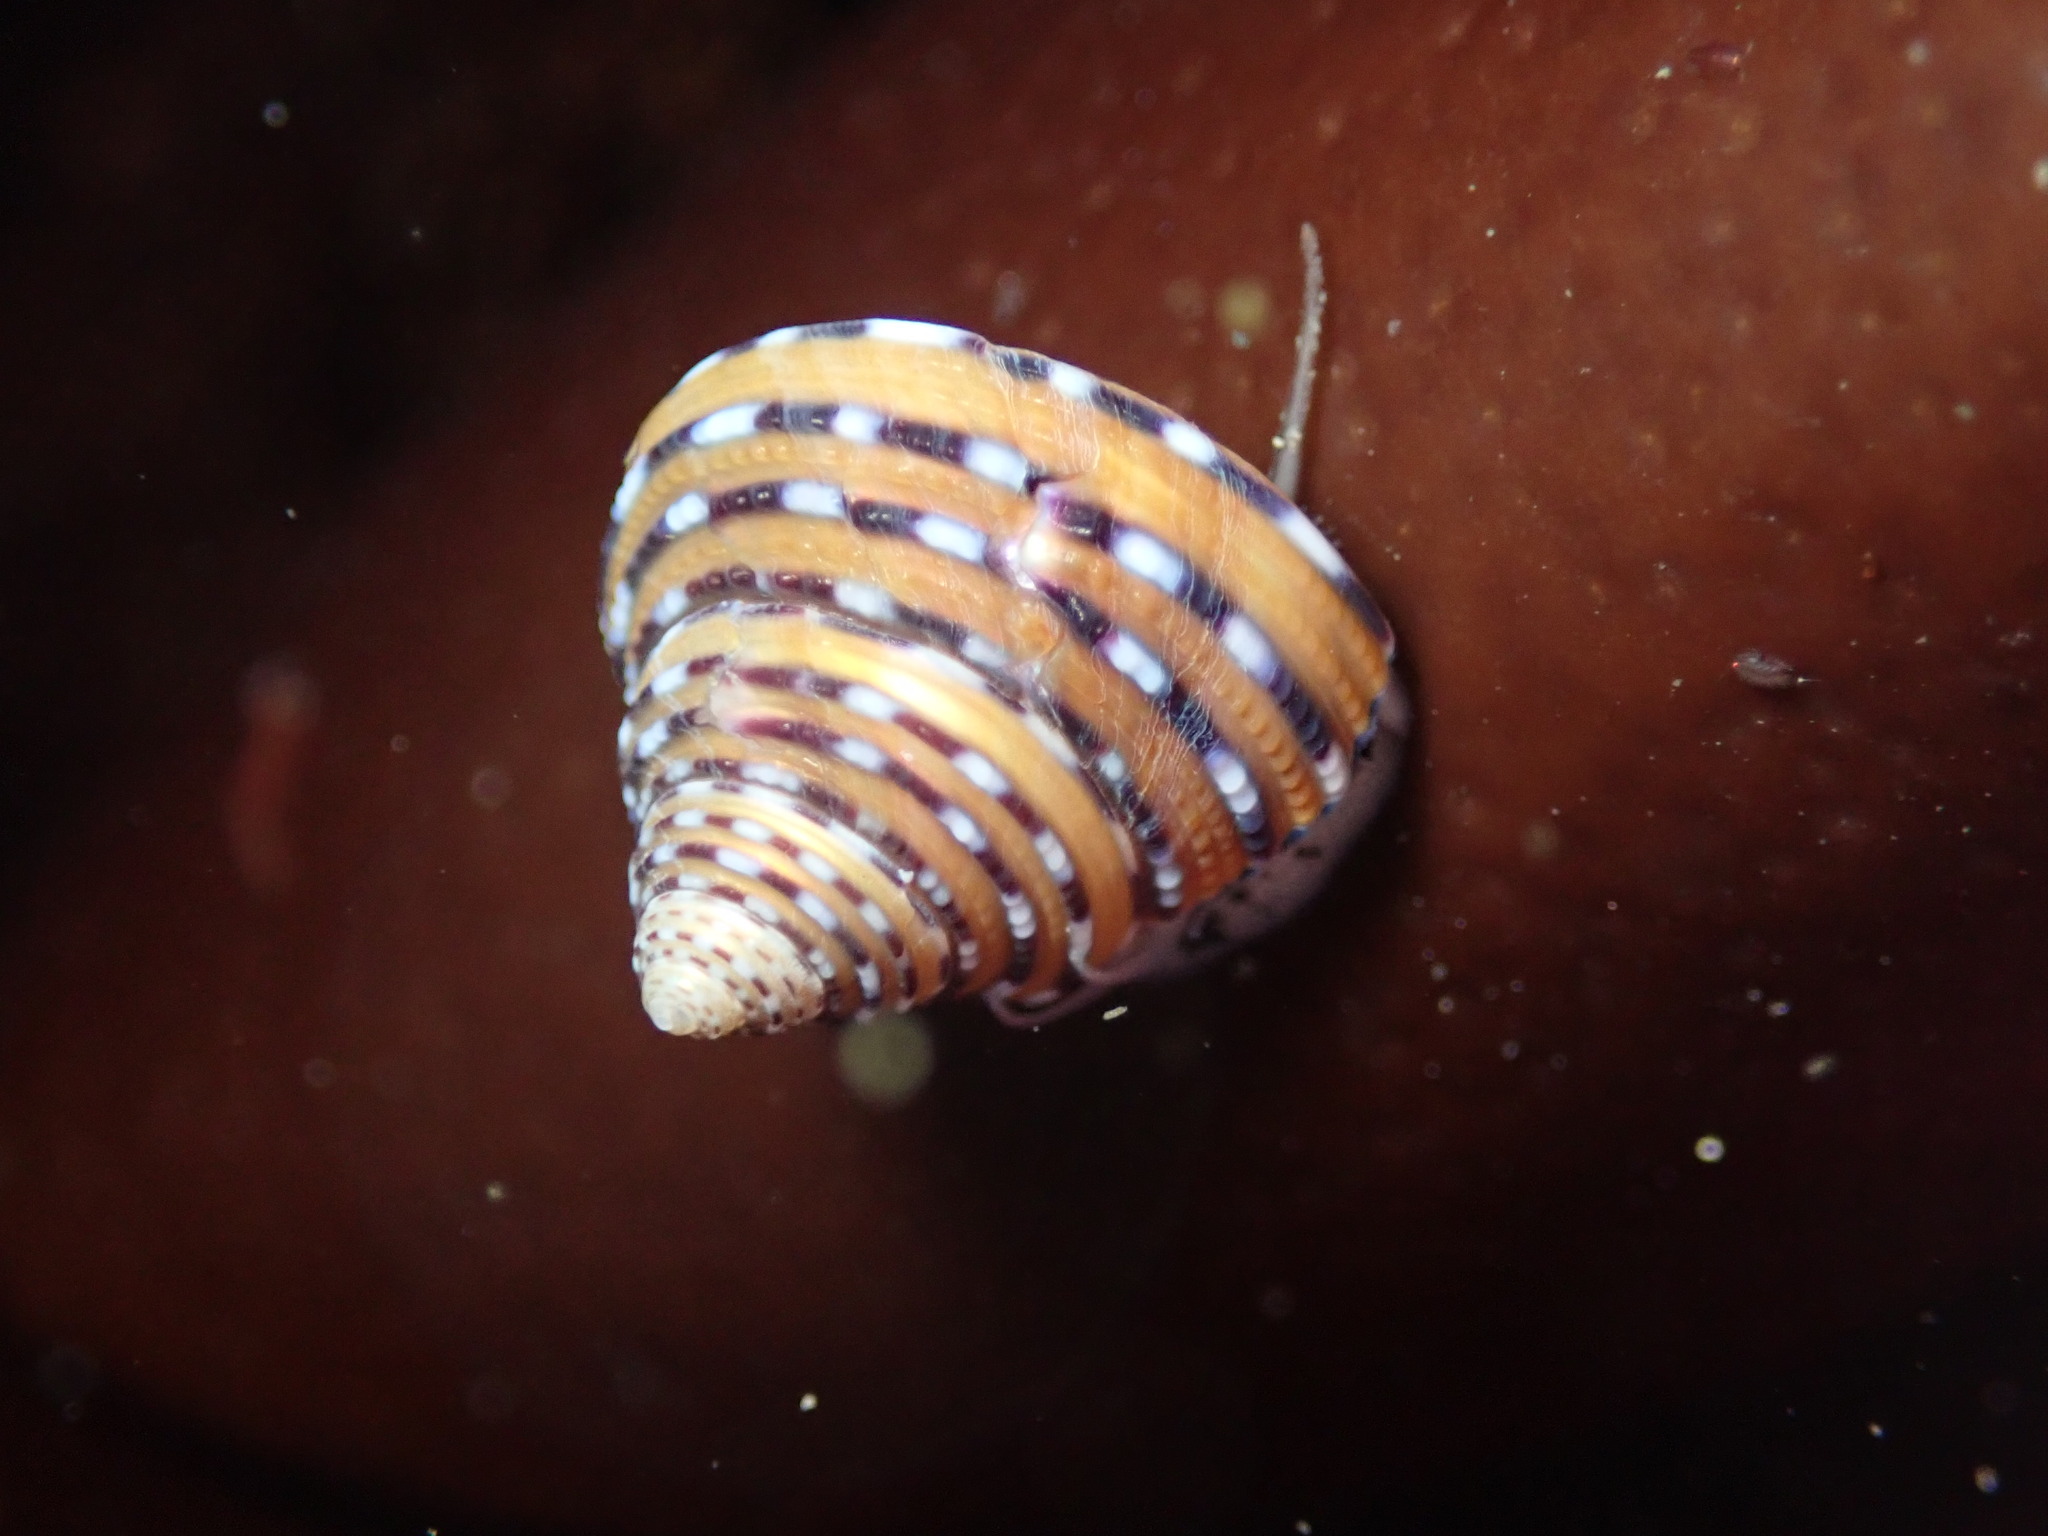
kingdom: Animalia
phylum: Mollusca
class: Gastropoda
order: Trochida
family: Calliostomatidae
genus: Calliostoma
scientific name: Calliostoma tricolor
